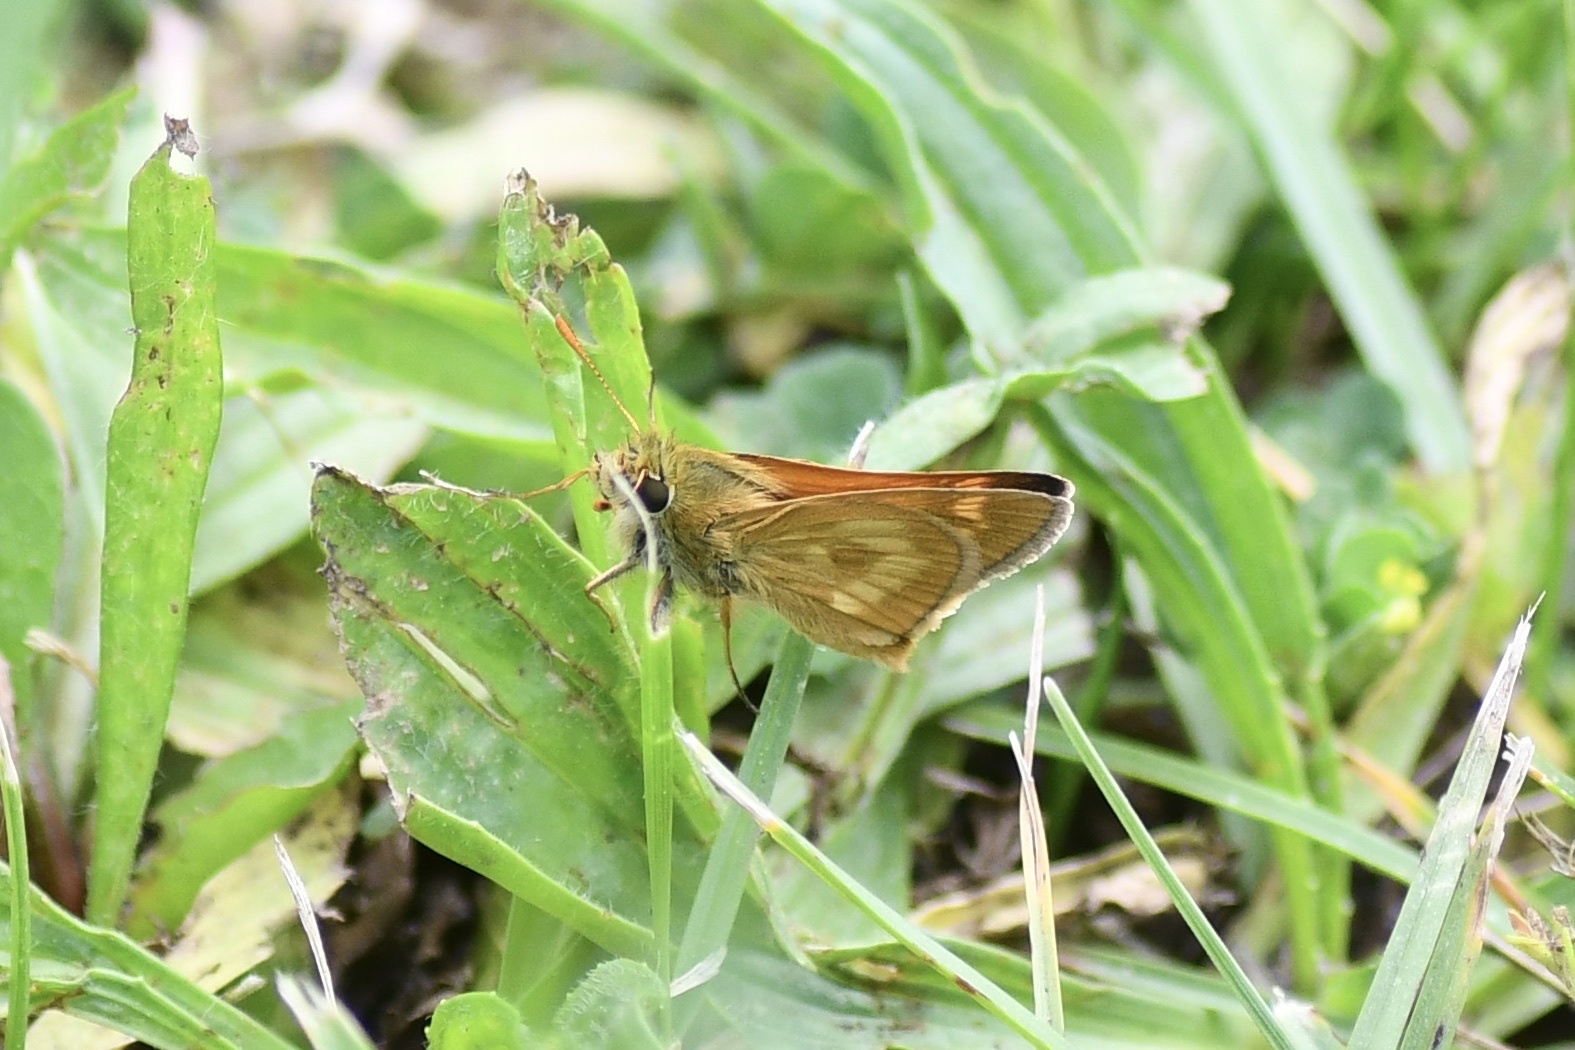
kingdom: Animalia
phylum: Arthropoda
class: Insecta
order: Lepidoptera
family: Hesperiidae
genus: Polites
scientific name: Polites mystic
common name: Long dash
